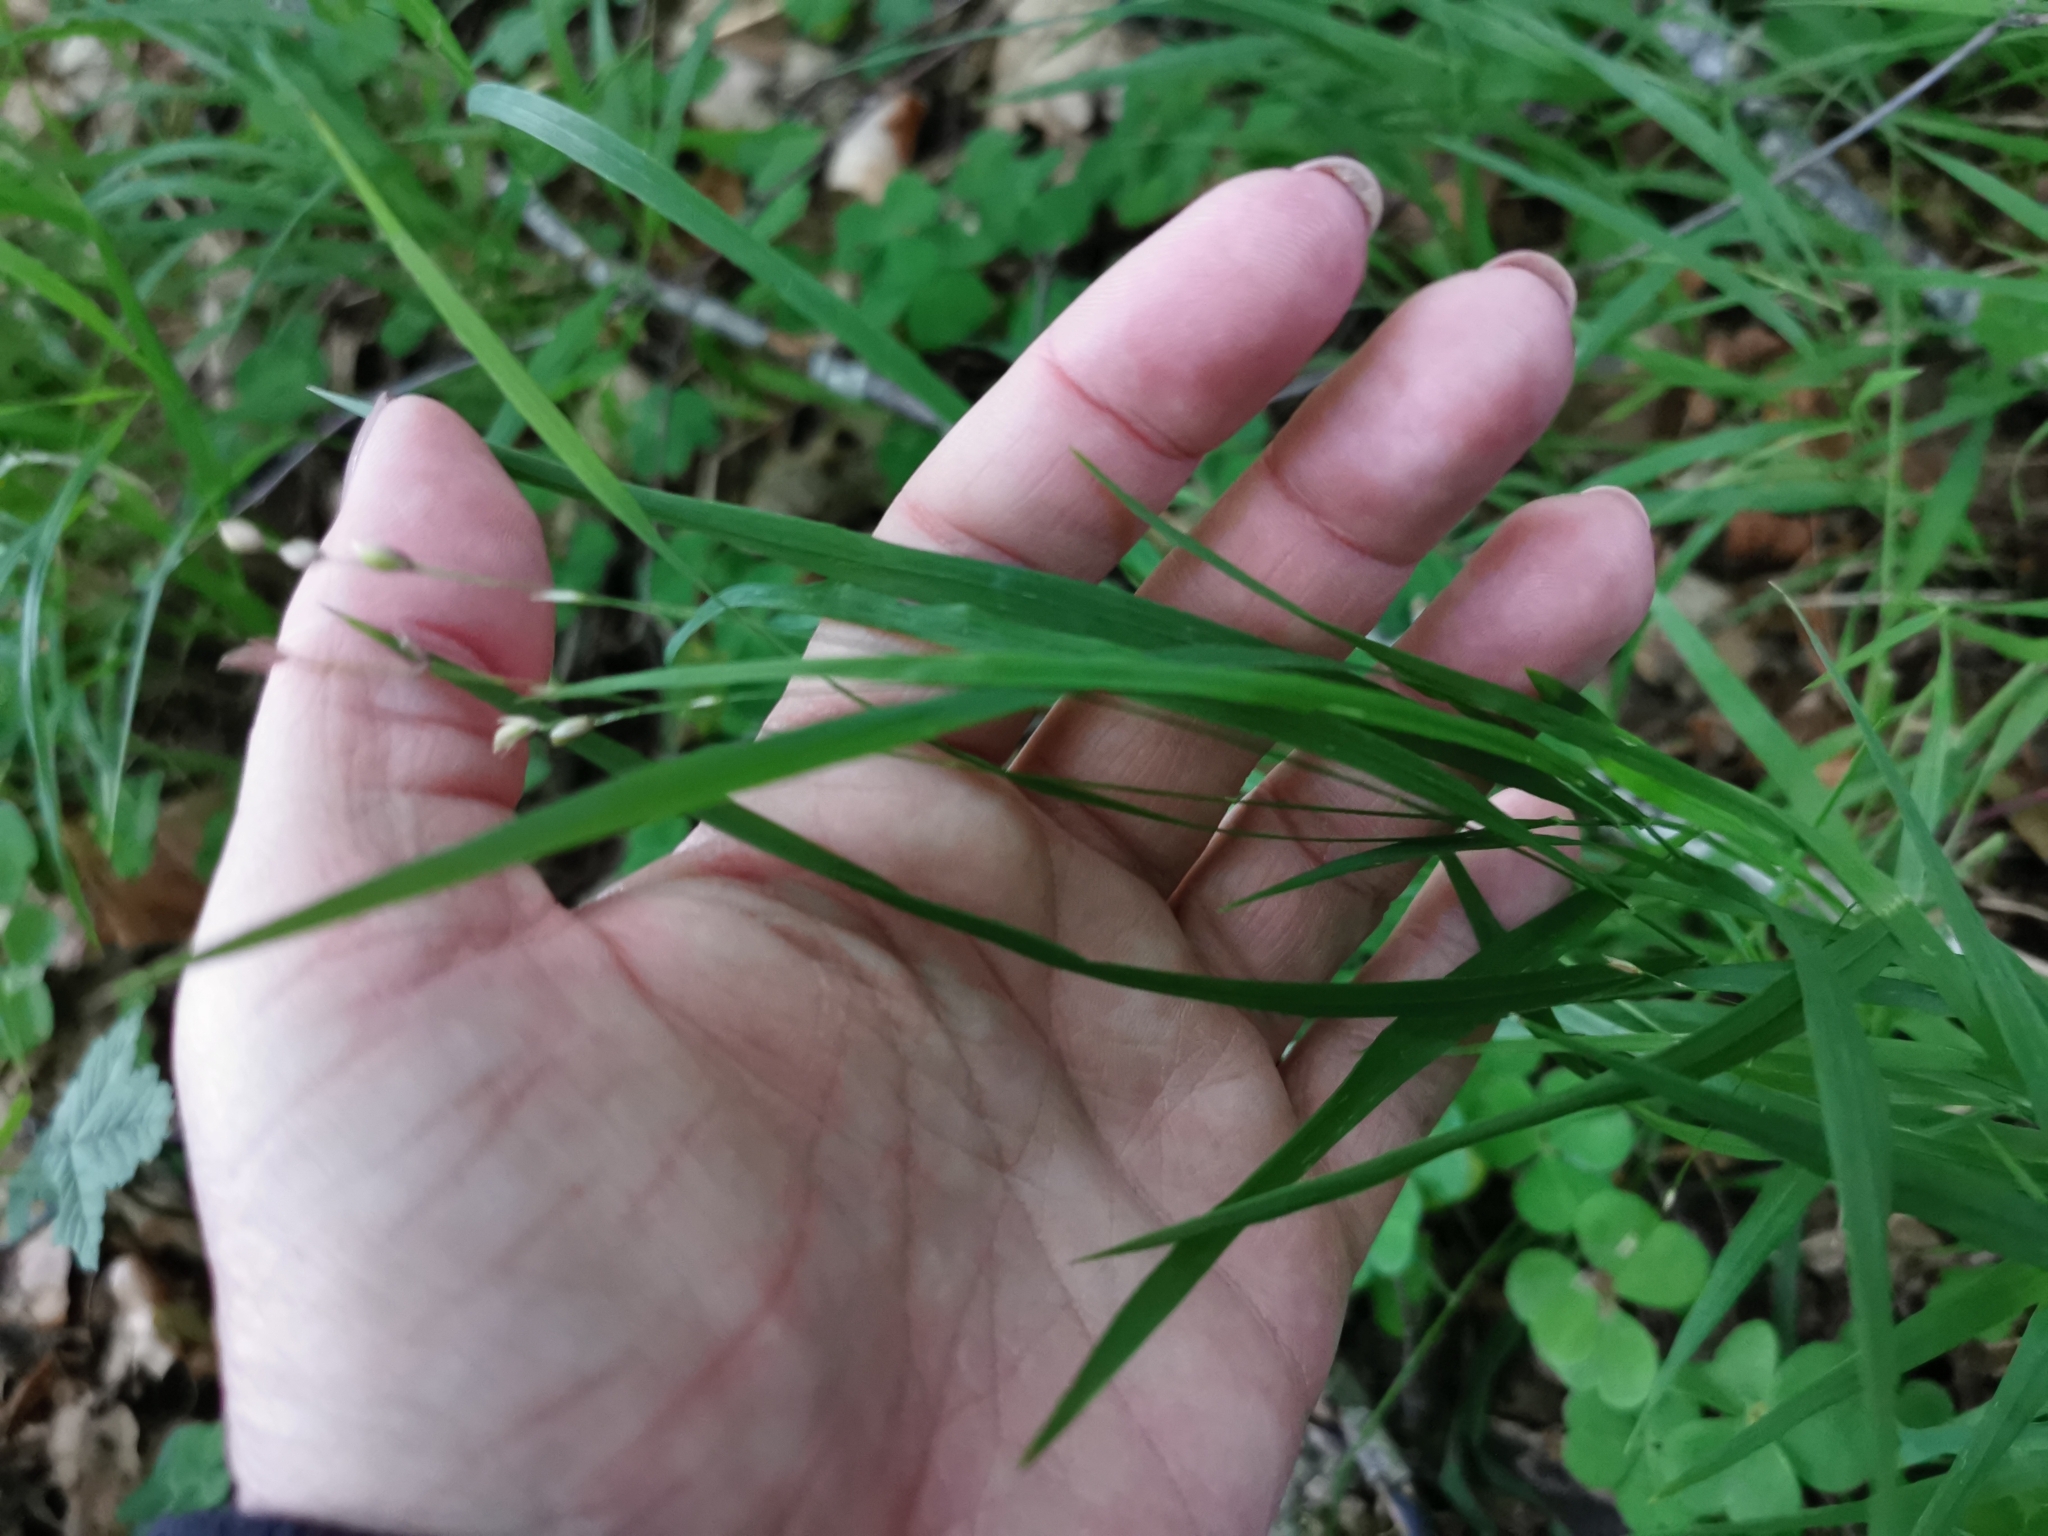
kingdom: Plantae
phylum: Tracheophyta
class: Liliopsida
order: Poales
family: Poaceae
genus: Melica
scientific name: Melica uniflora
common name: Wood melick
